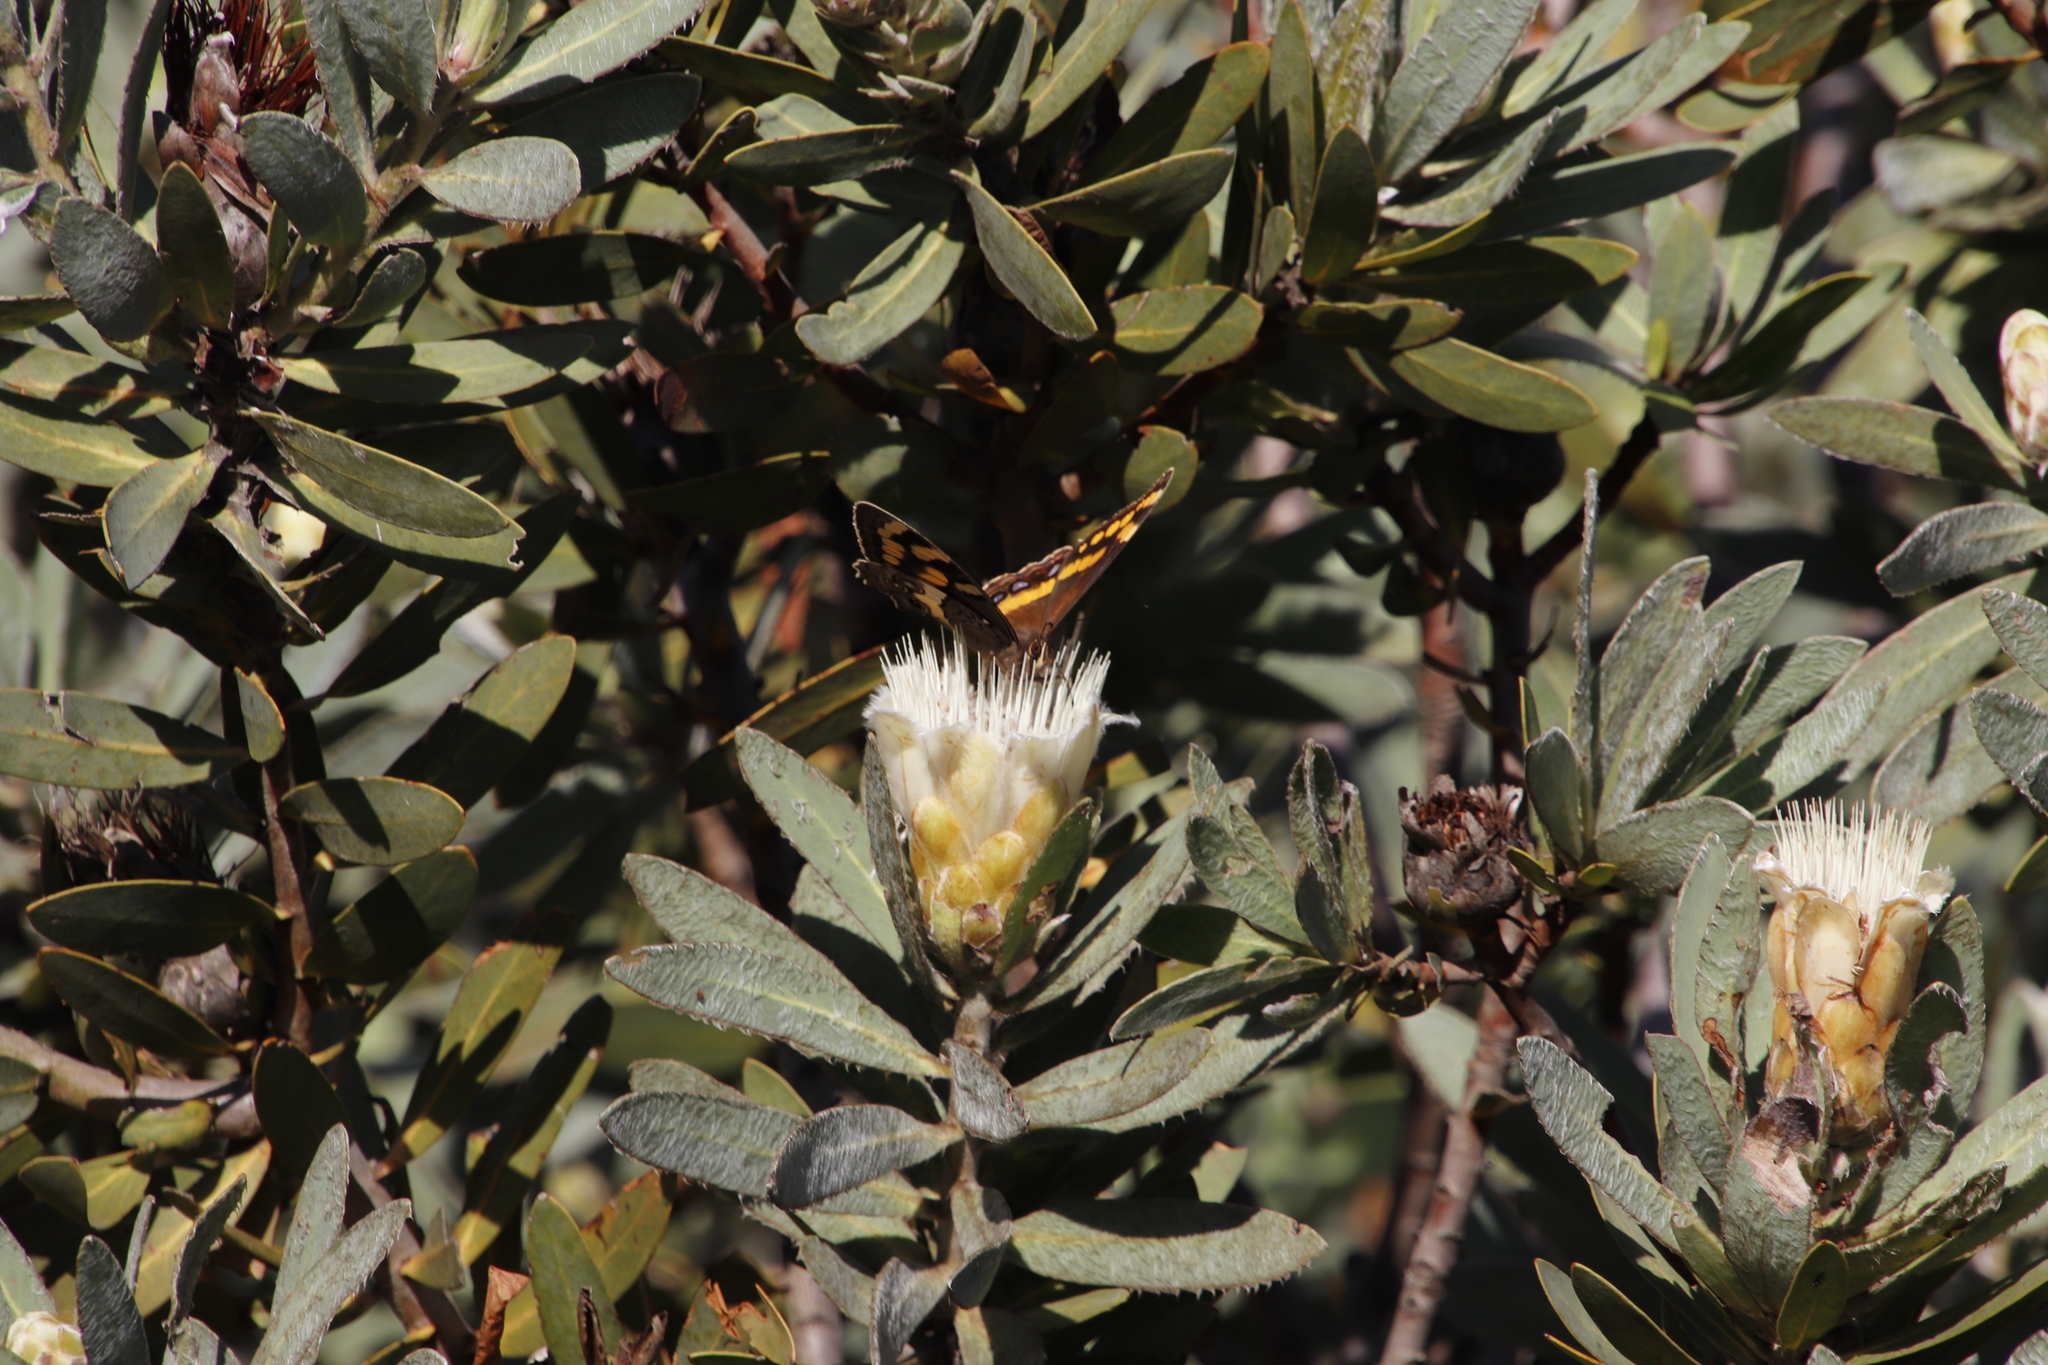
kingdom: Plantae
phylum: Tracheophyta
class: Magnoliopsida
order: Proteales
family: Proteaceae
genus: Protea
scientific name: Protea subvestita
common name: Lip-flower sugarbush
